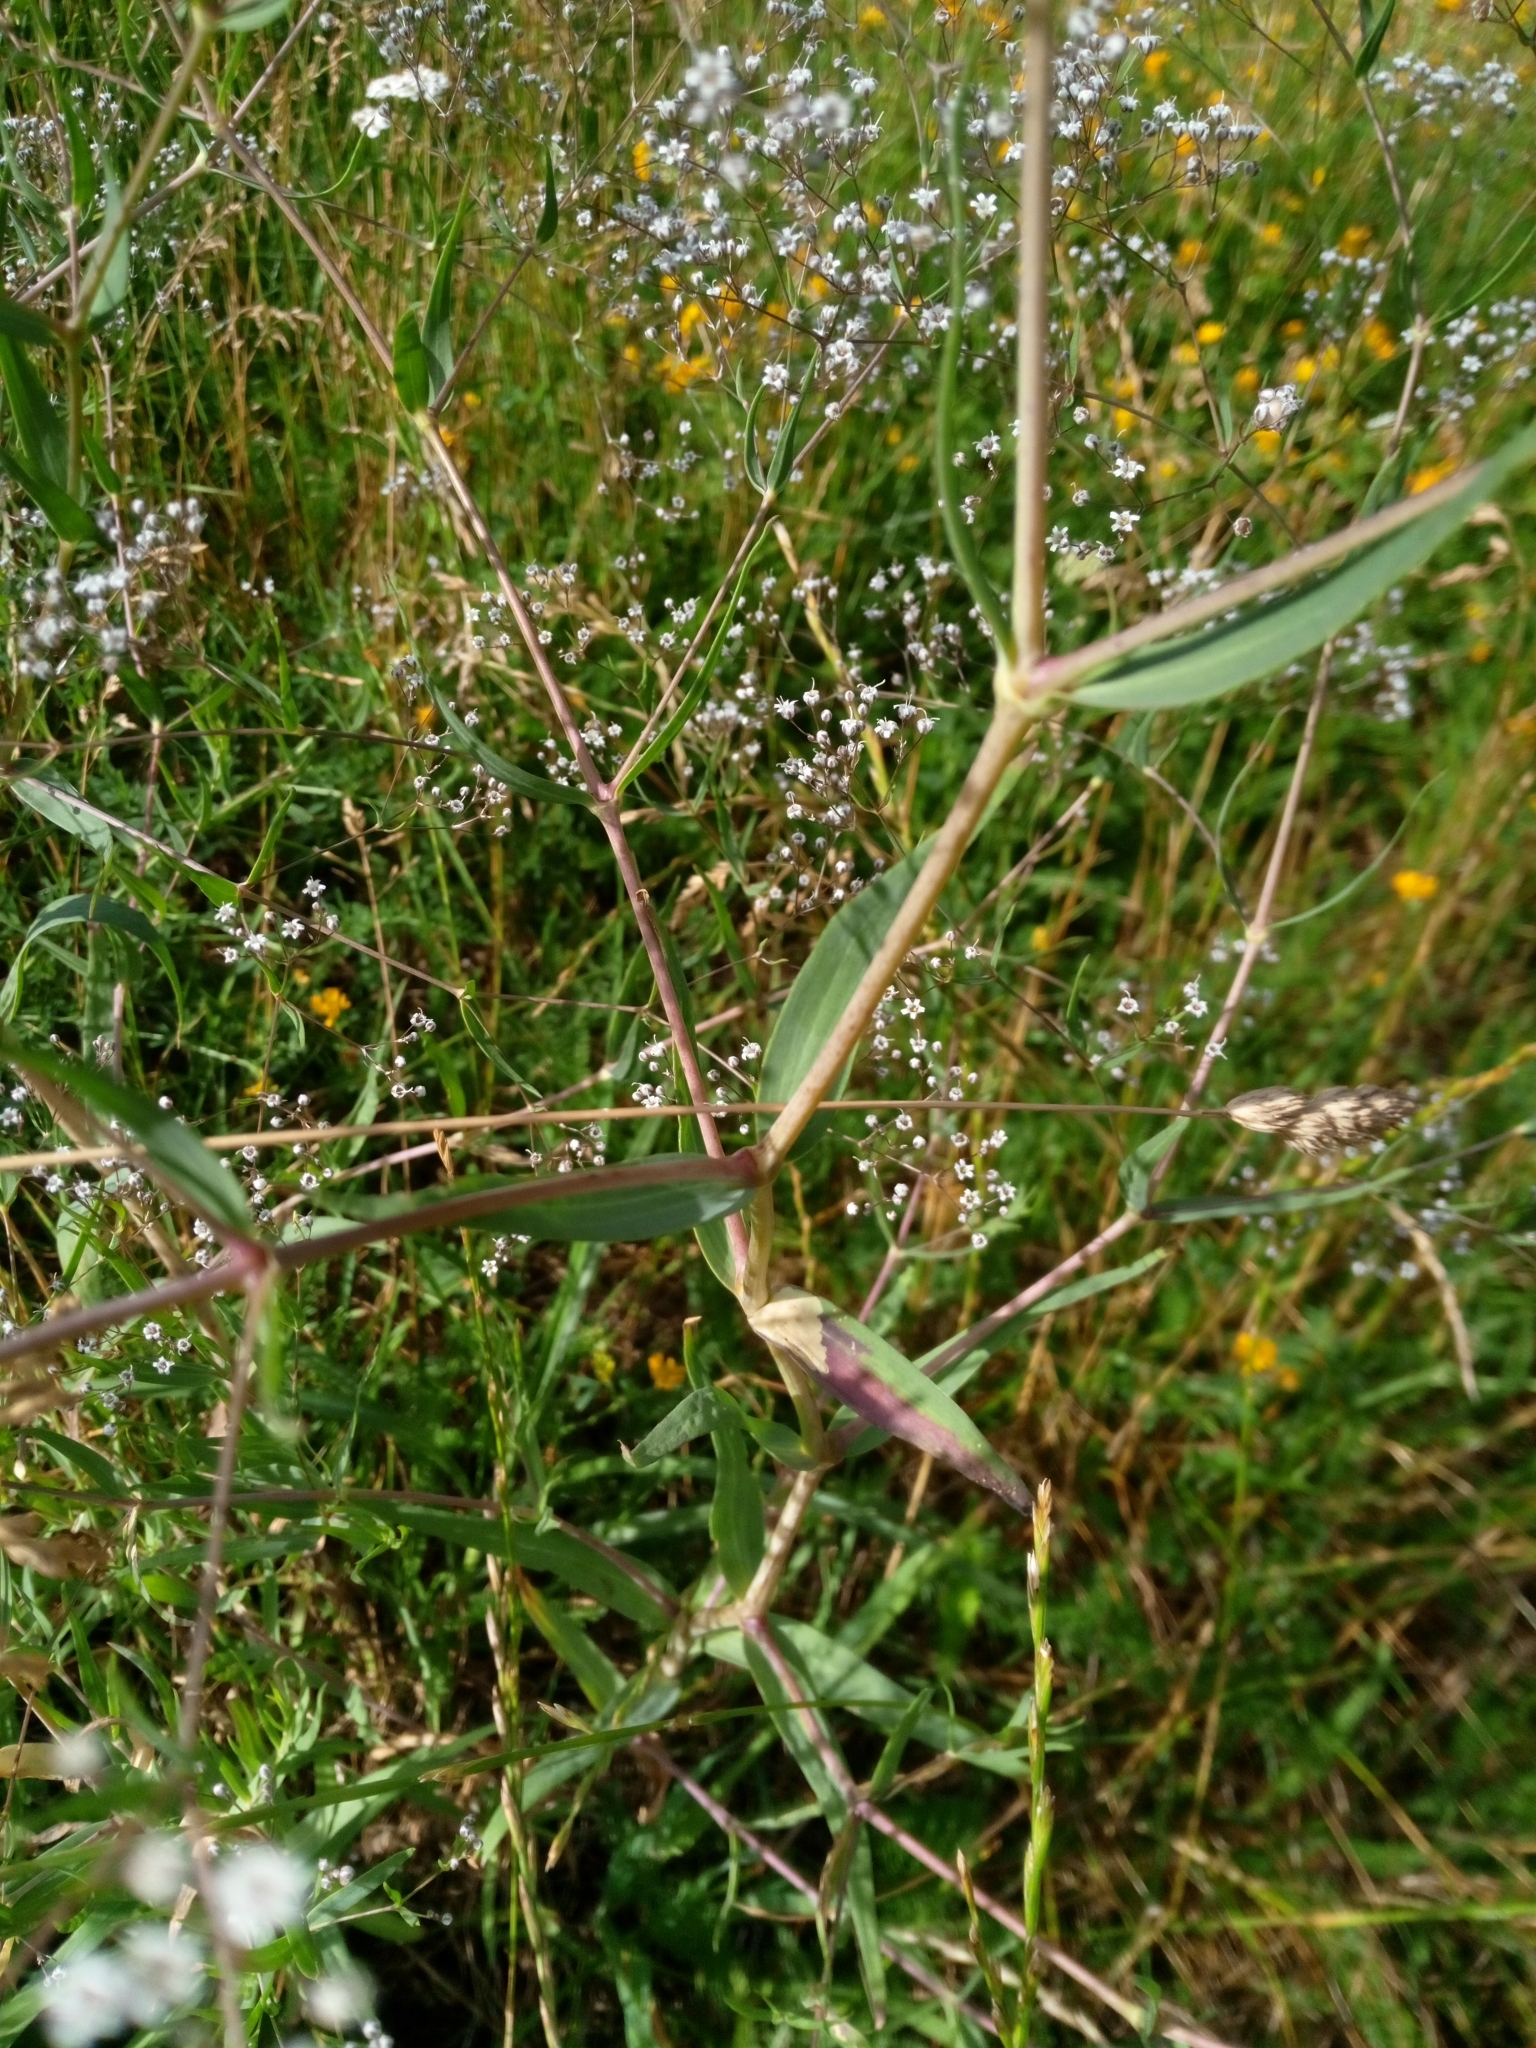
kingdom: Plantae
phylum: Tracheophyta
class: Magnoliopsida
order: Caryophyllales
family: Caryophyllaceae
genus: Gypsophila
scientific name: Gypsophila paniculata
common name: Baby's-breath
